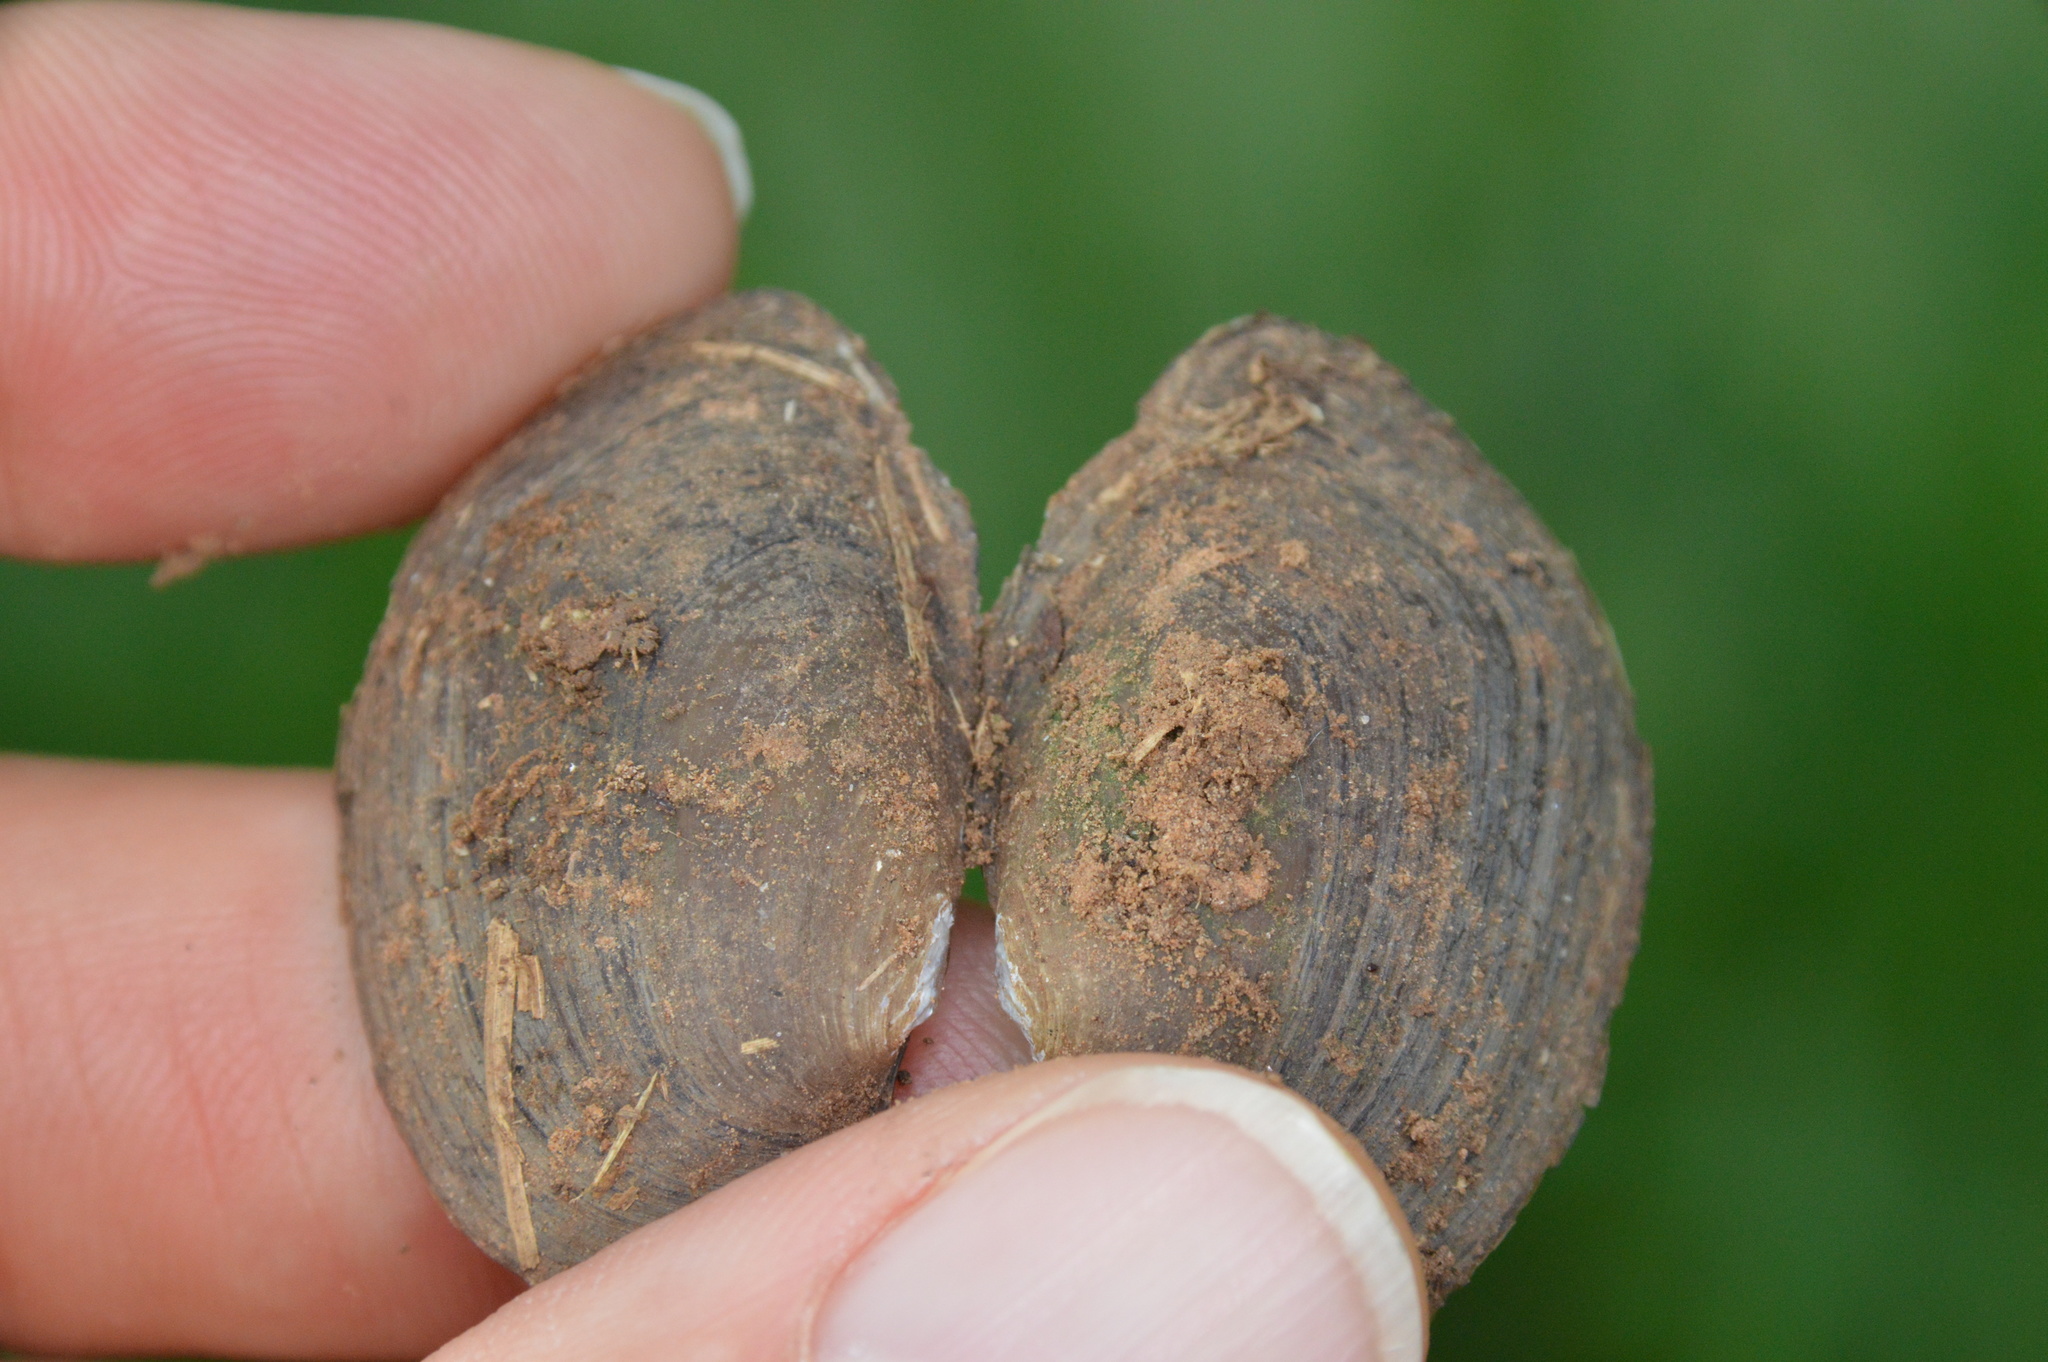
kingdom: Animalia
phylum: Mollusca
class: Bivalvia
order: Unionida
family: Unionidae
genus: Toxolasma
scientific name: Toxolasma texasiense
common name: Texas lilliput
